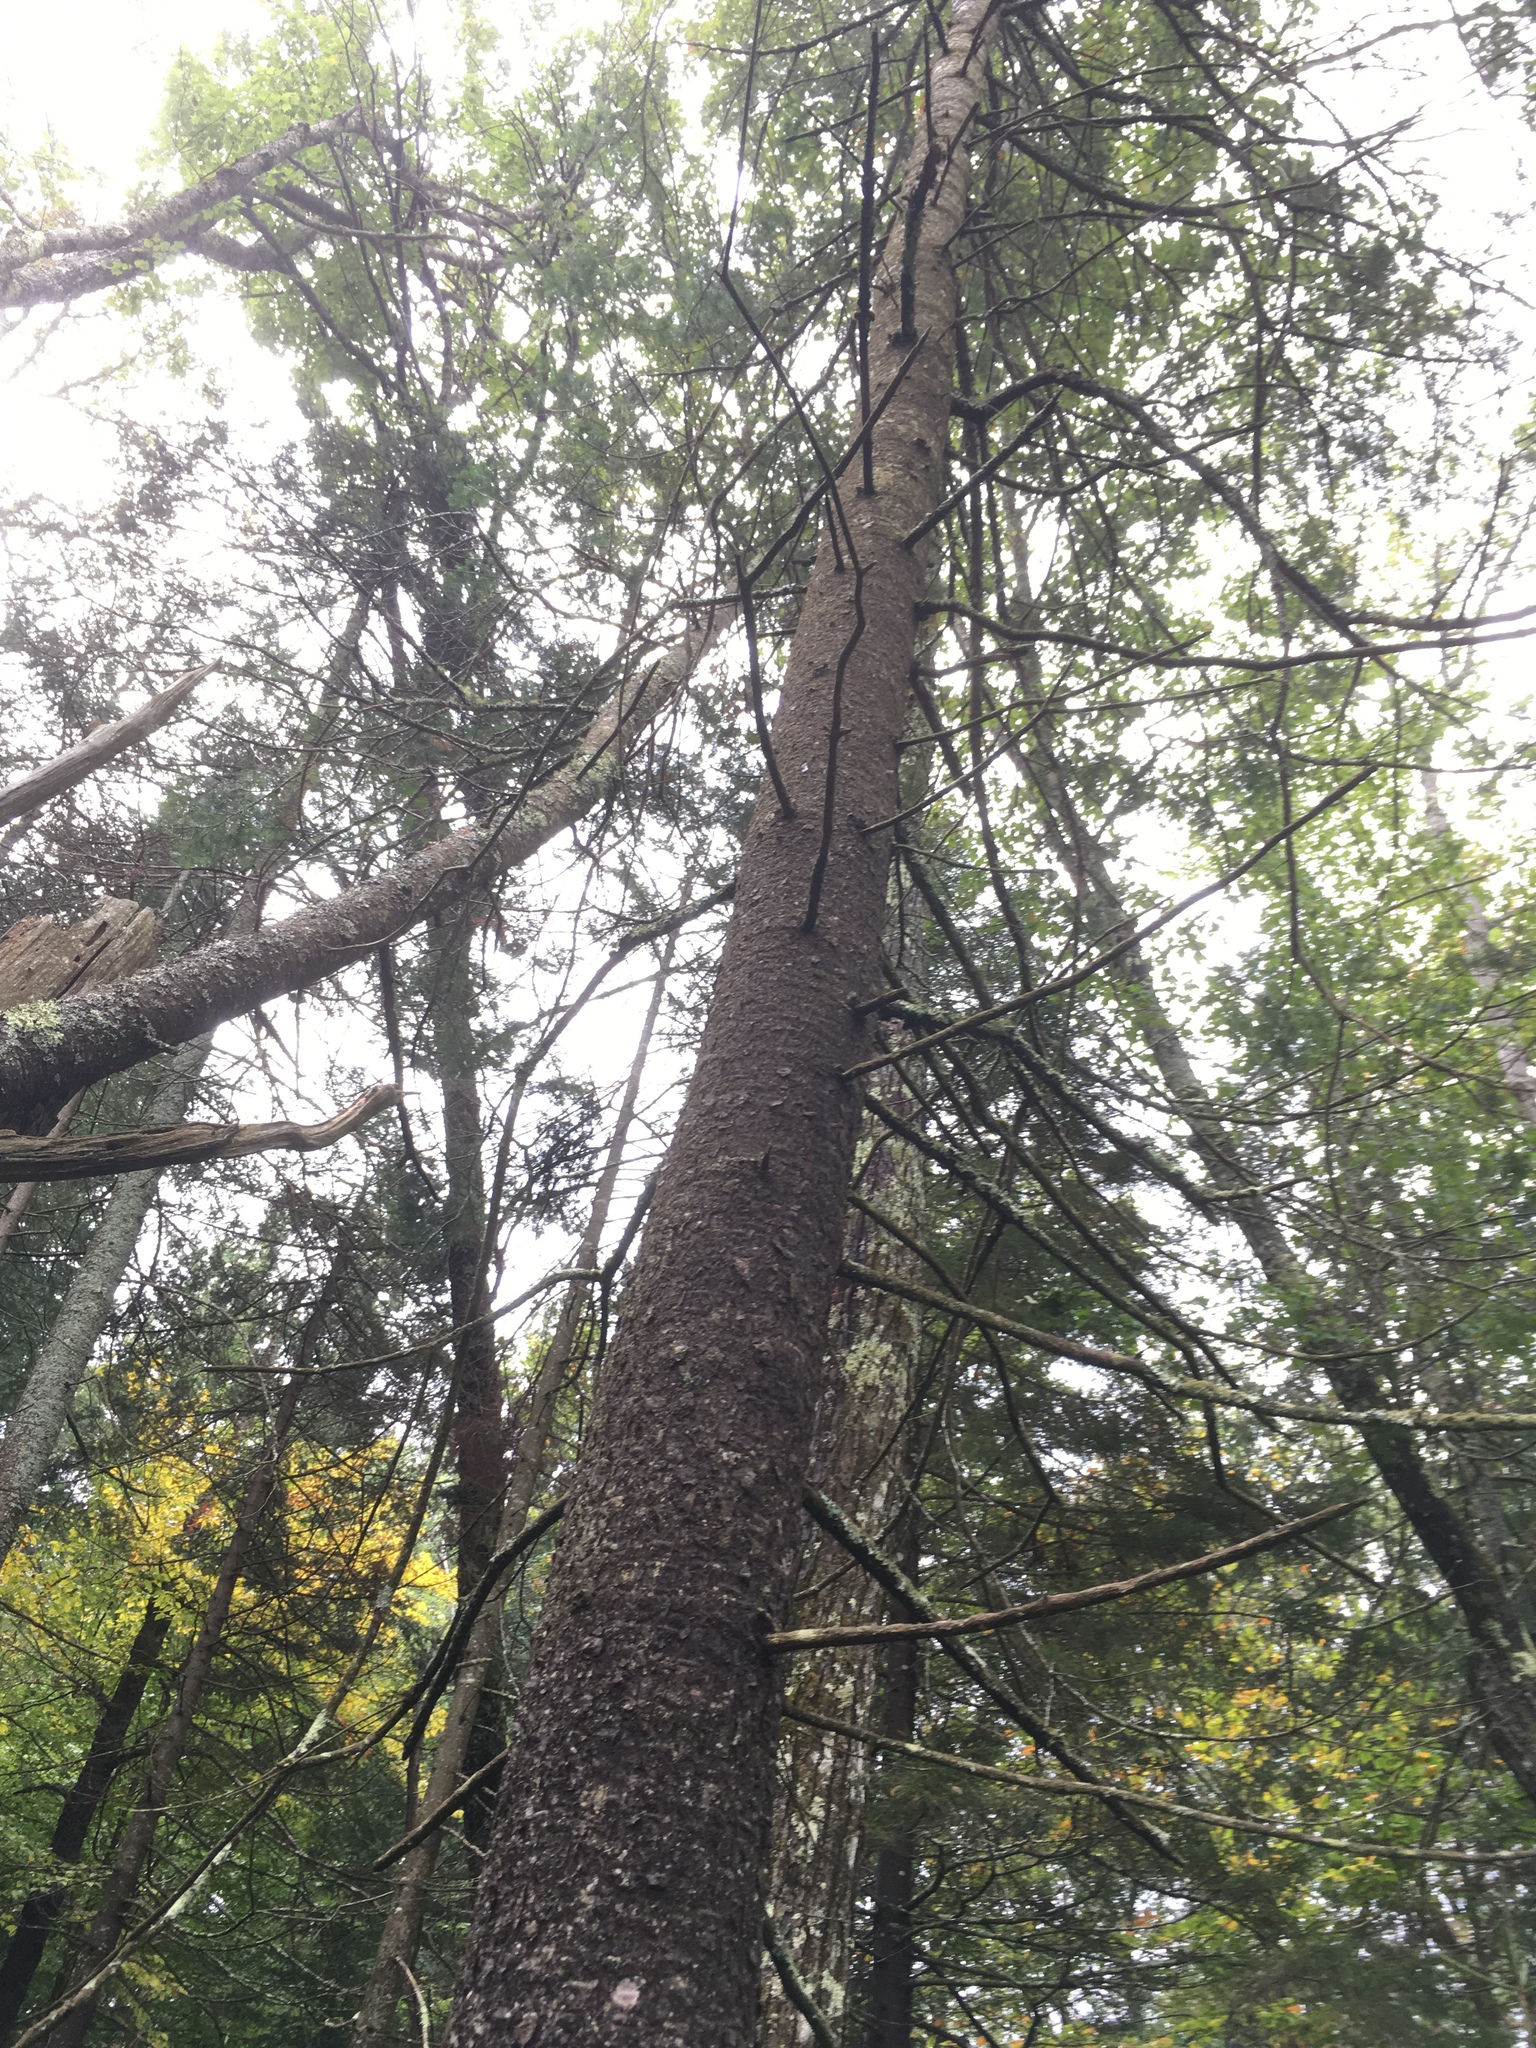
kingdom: Plantae
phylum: Tracheophyta
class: Pinopsida
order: Pinales
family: Pinaceae
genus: Abies
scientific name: Abies balsamea
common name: Balsam fir
